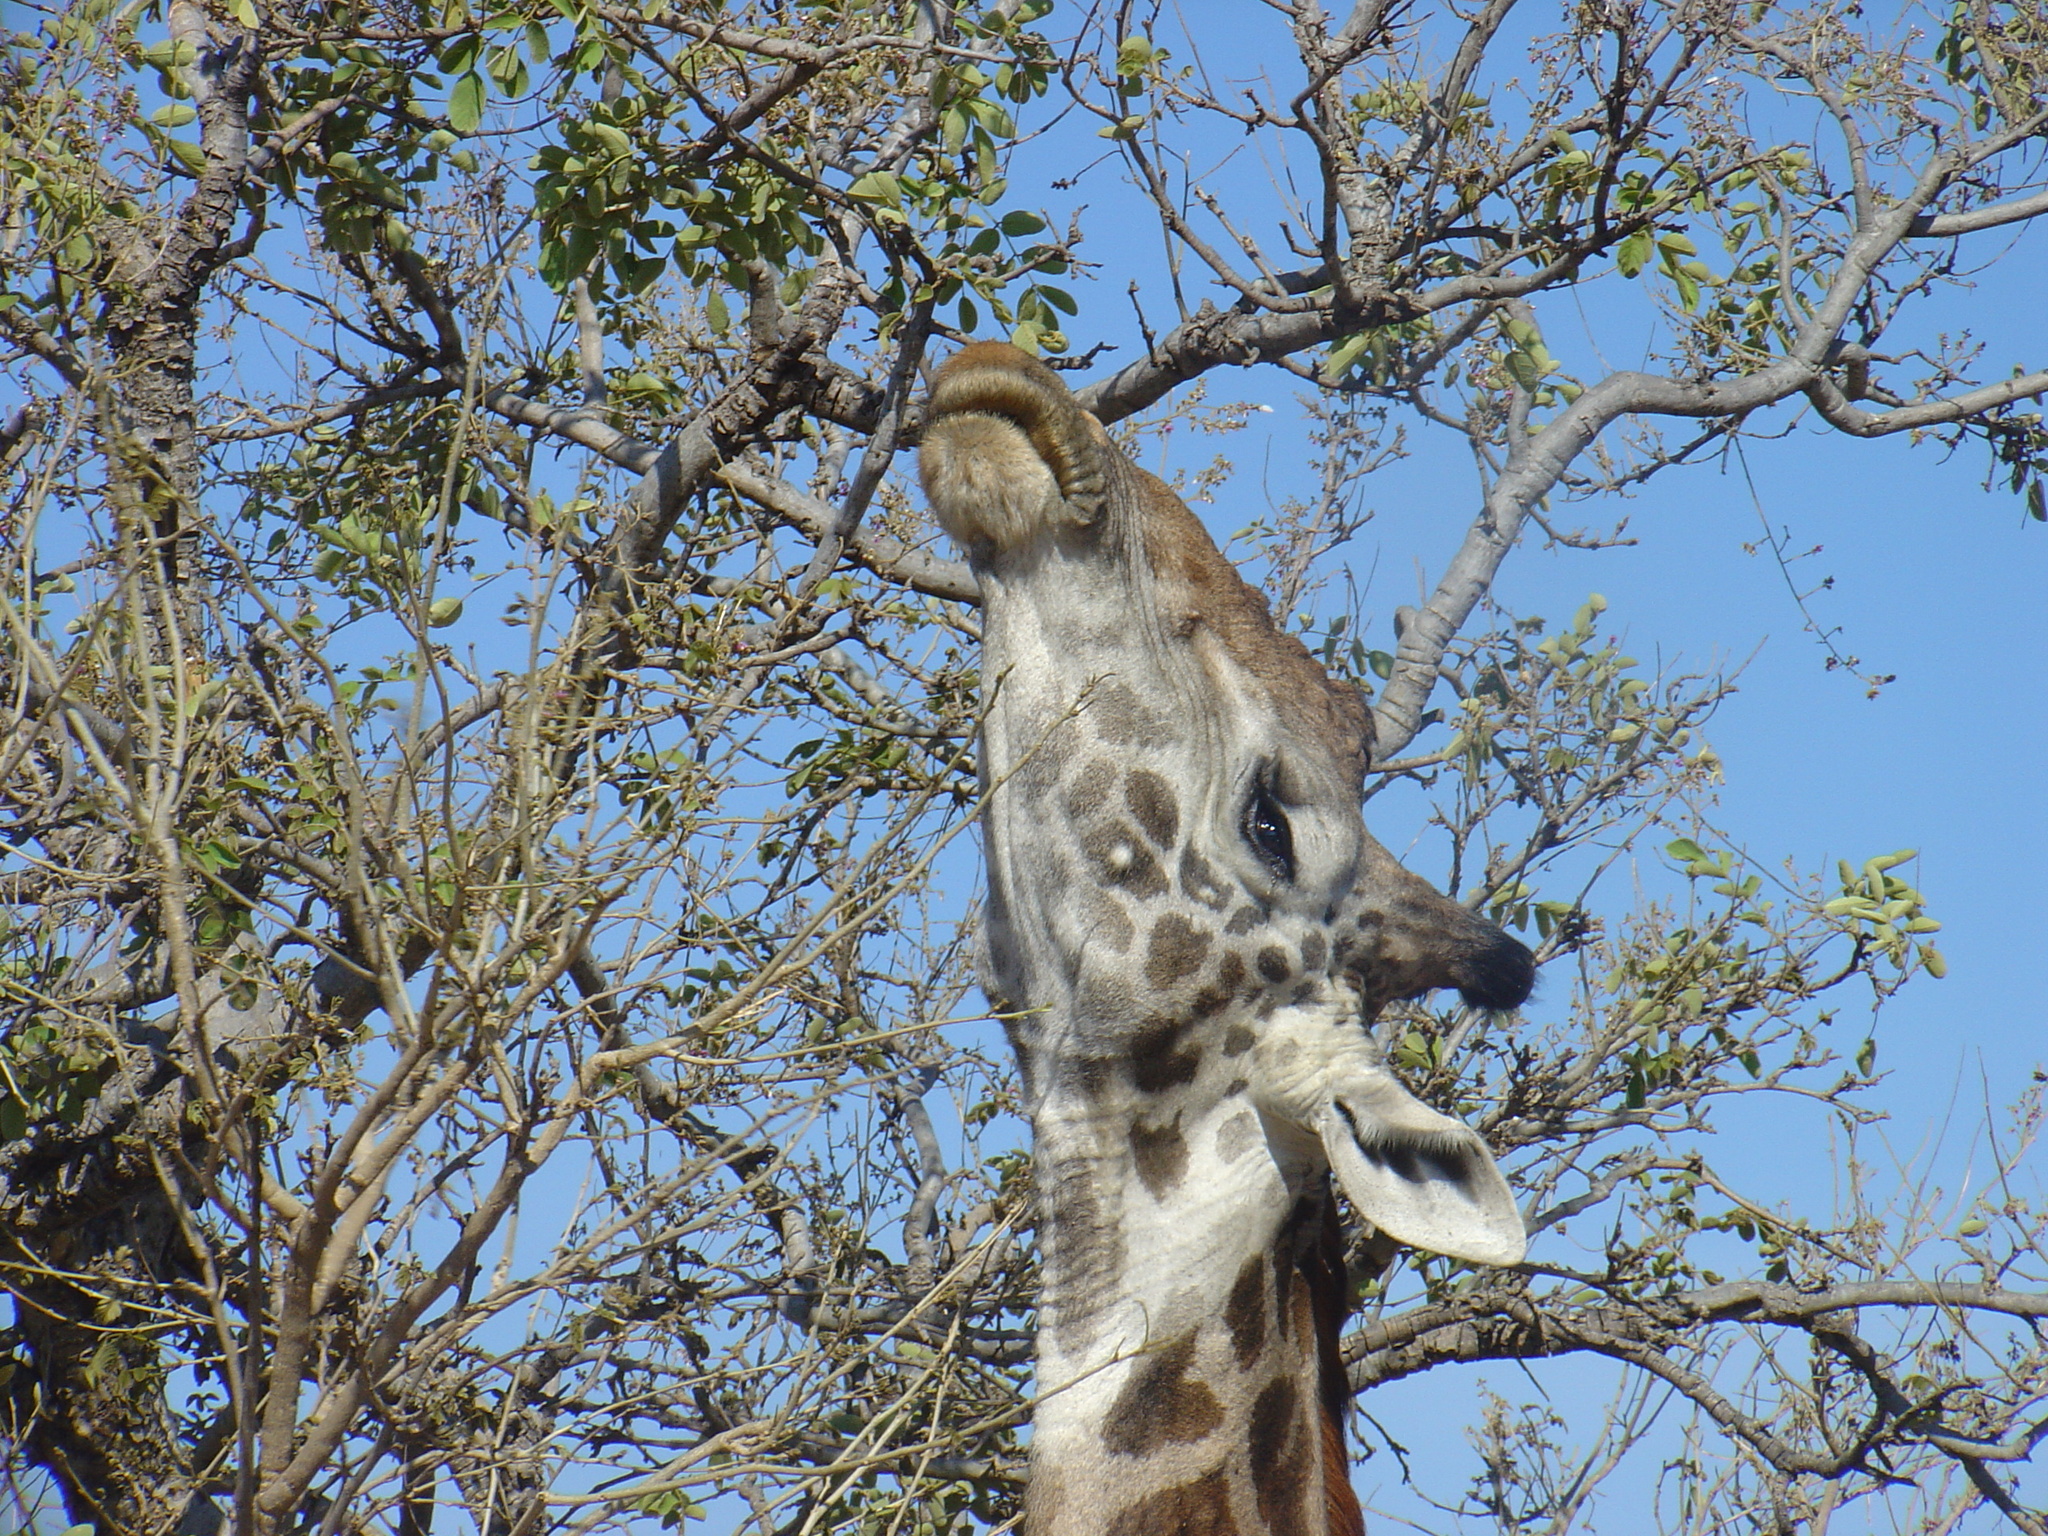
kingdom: Animalia
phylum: Chordata
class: Mammalia
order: Artiodactyla
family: Giraffidae
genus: Giraffa
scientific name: Giraffa tippelskirchi
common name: Masai giraffe
